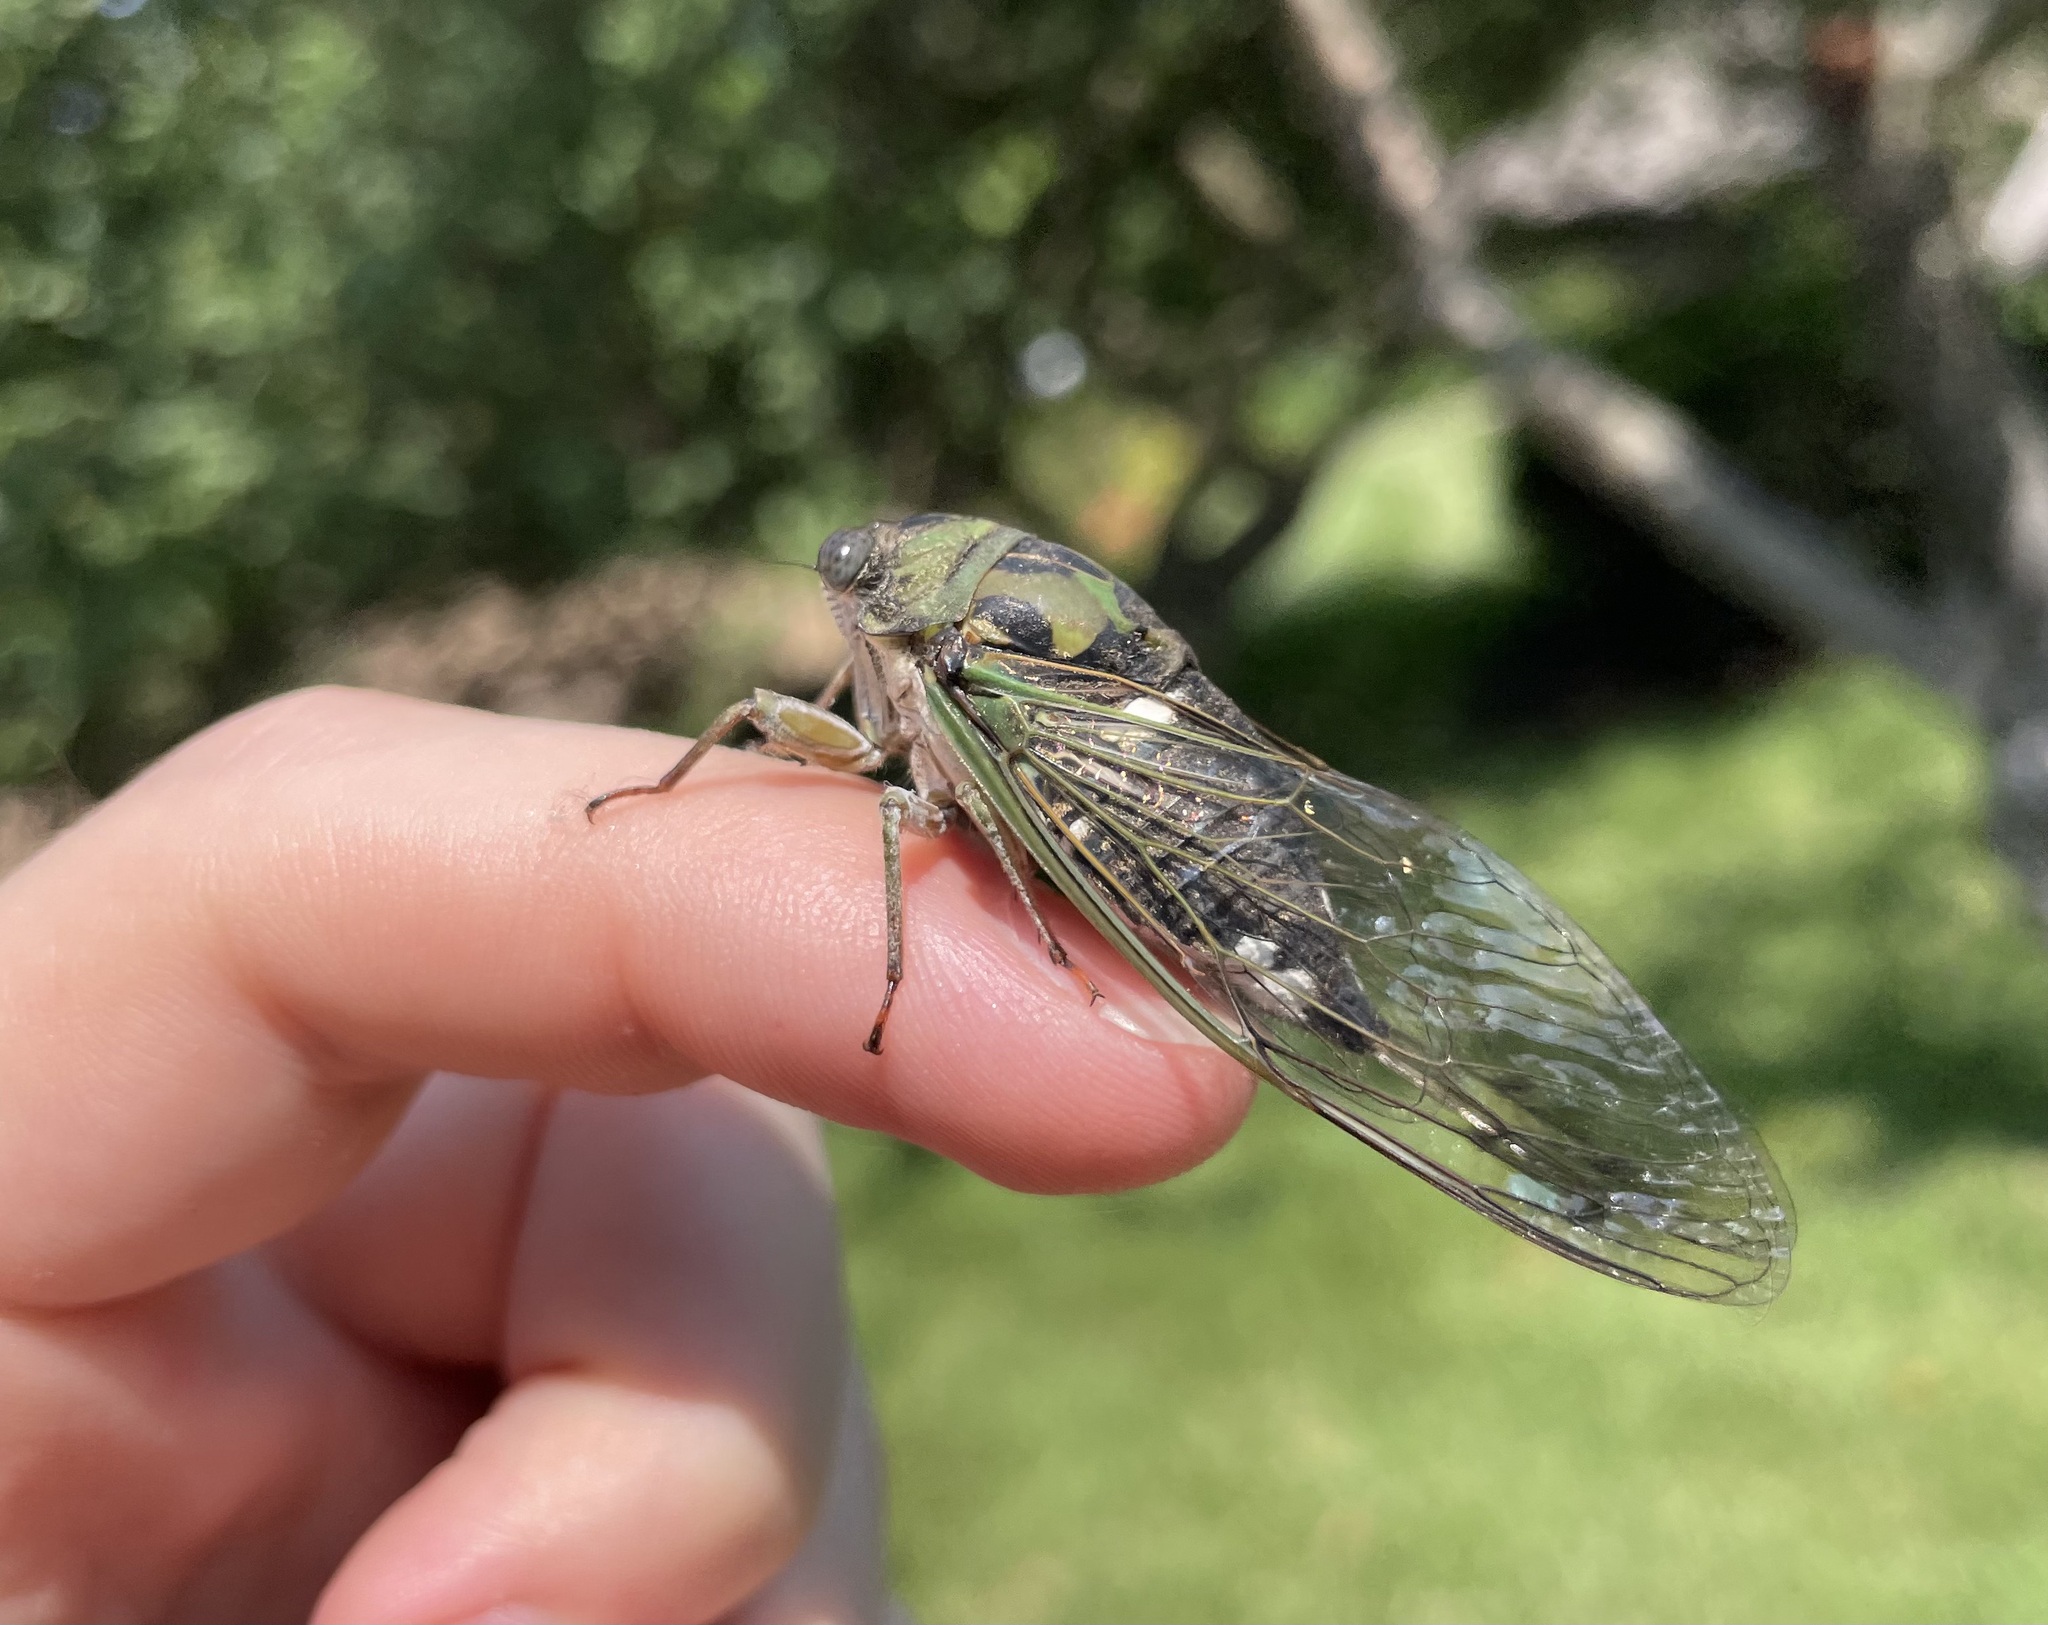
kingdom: Animalia
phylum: Arthropoda
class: Insecta
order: Hemiptera
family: Cicadidae
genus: Neotibicen
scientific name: Neotibicen pruinosus
